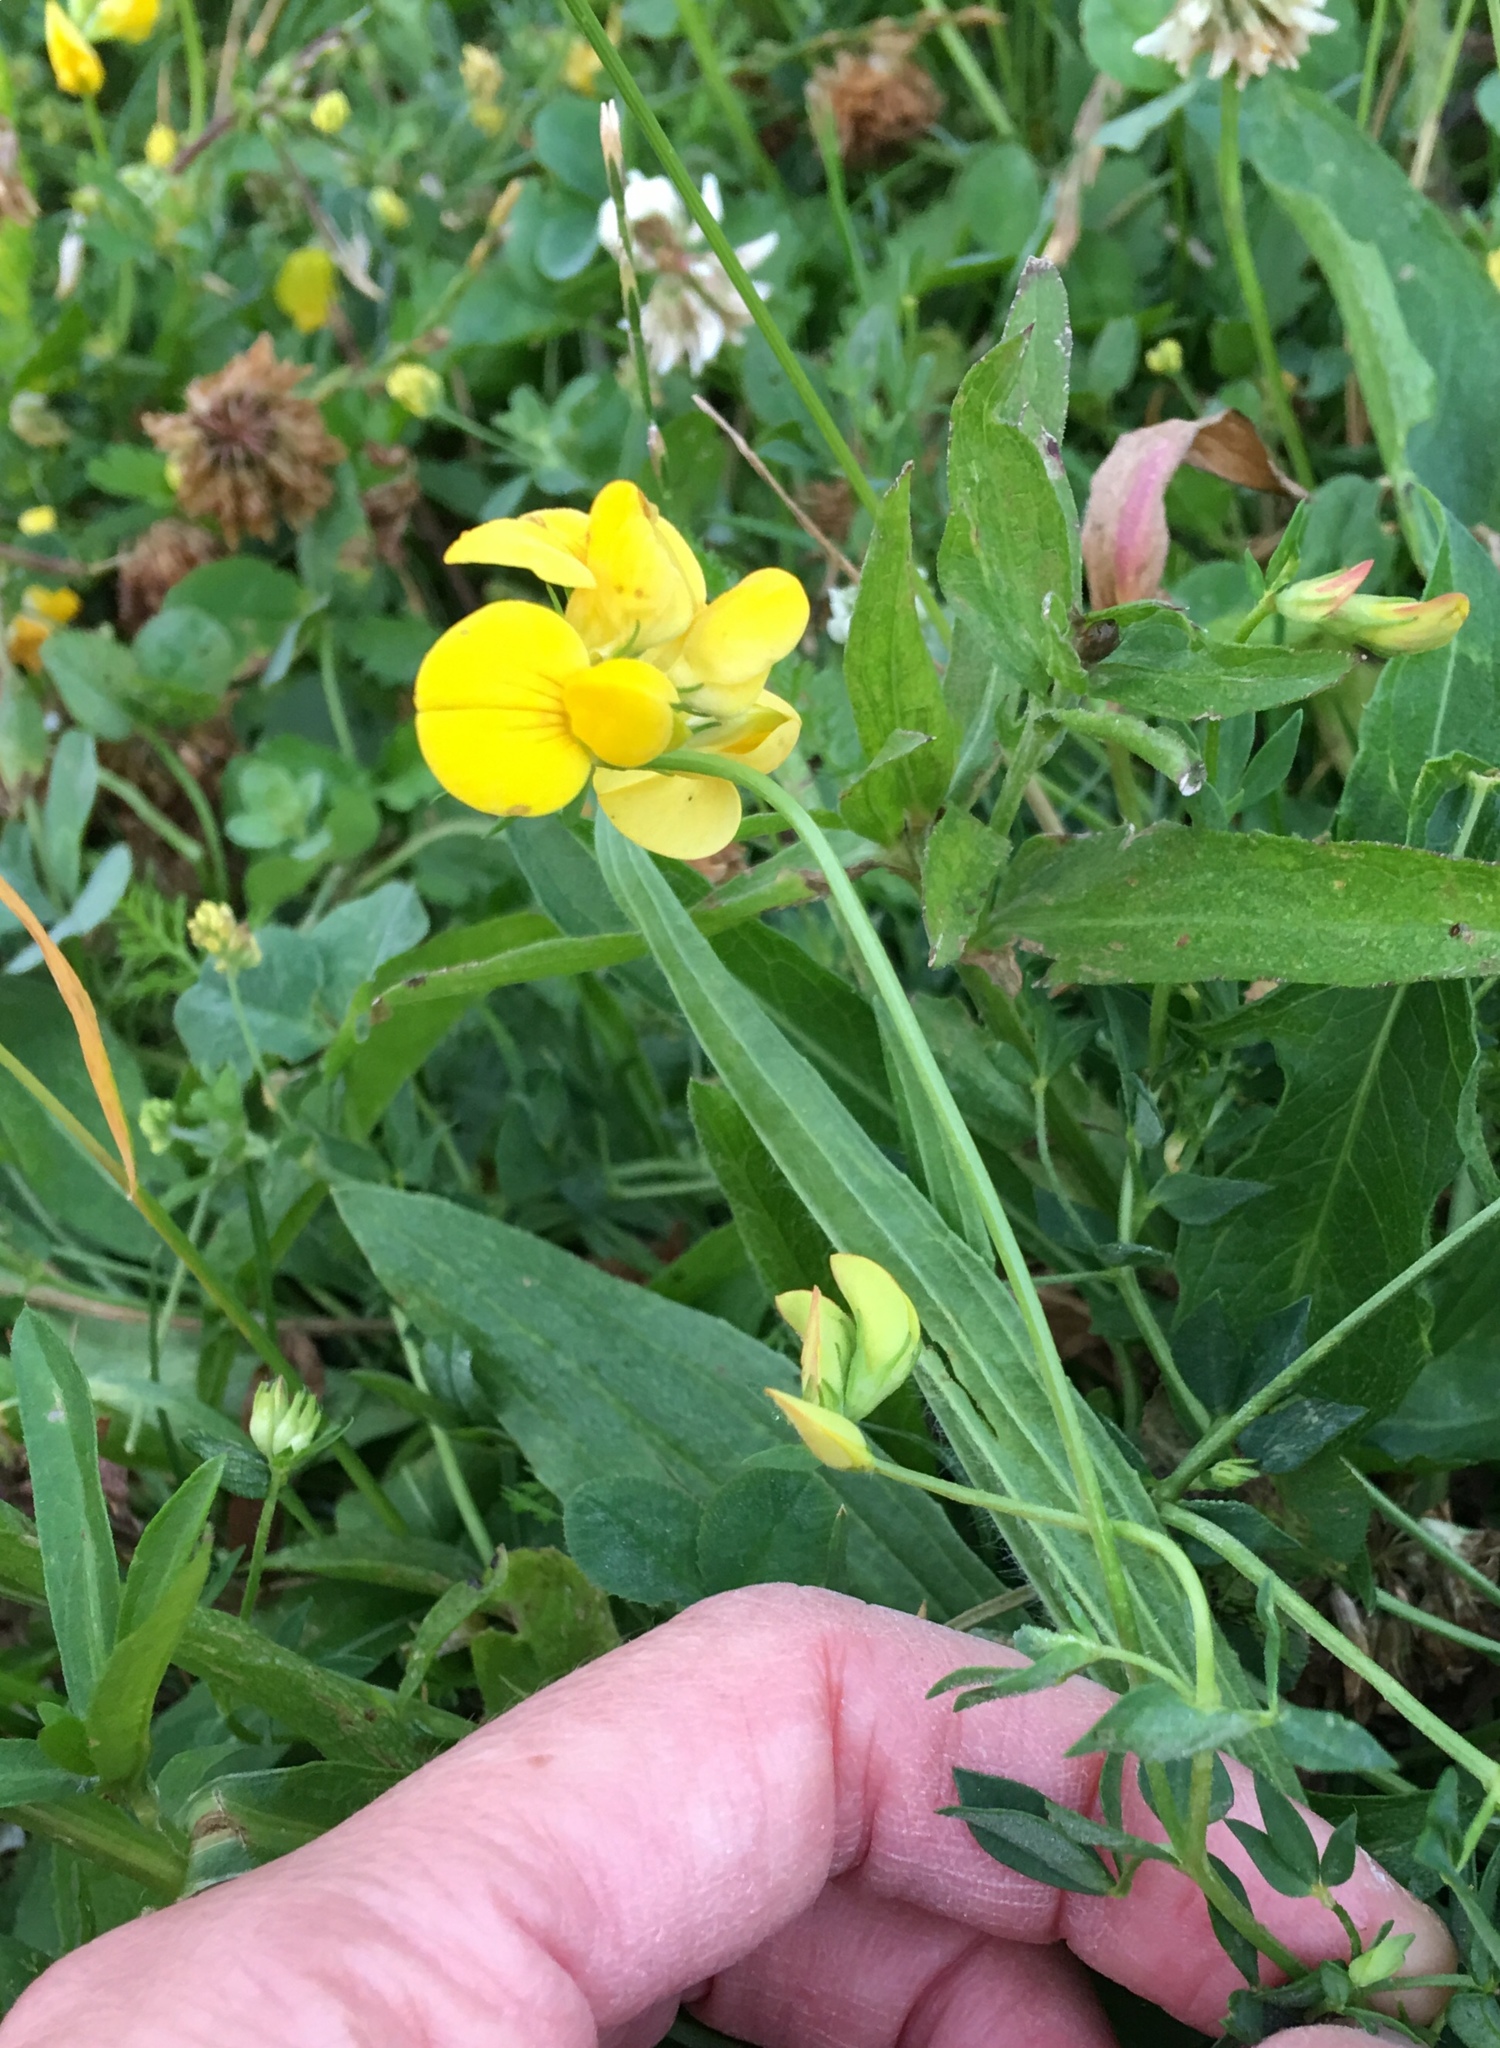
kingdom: Plantae
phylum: Tracheophyta
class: Magnoliopsida
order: Fabales
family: Fabaceae
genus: Lotus
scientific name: Lotus corniculatus
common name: Common bird's-foot-trefoil
